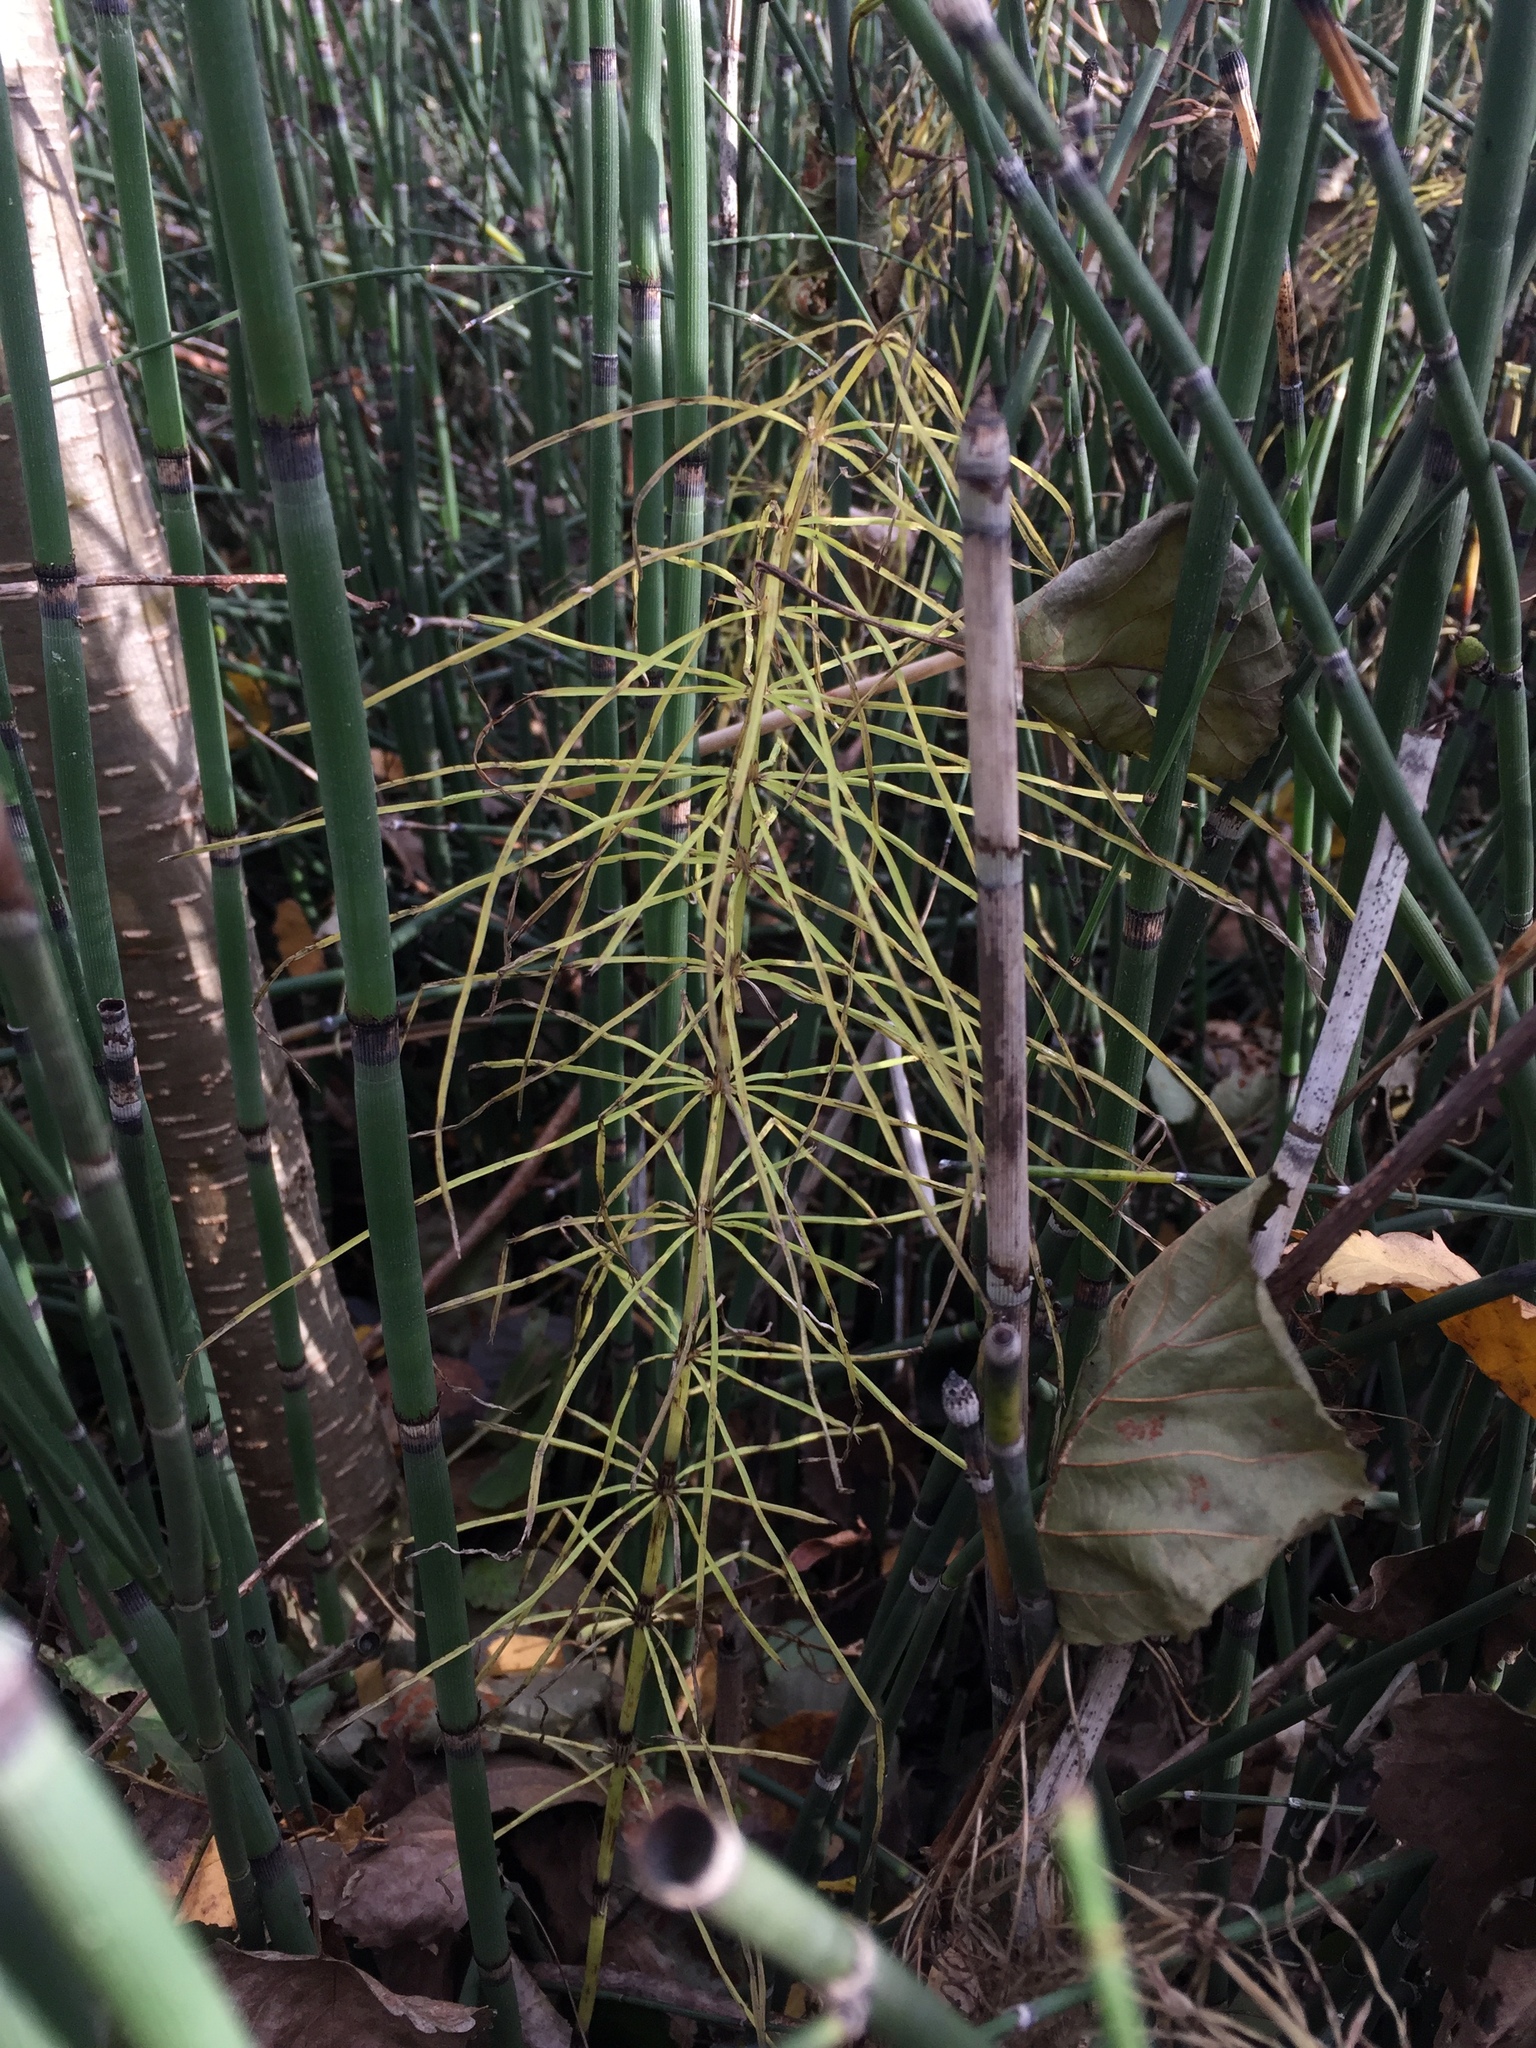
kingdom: Plantae
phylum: Tracheophyta
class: Polypodiopsida
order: Equisetales
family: Equisetaceae
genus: Equisetum
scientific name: Equisetum arvense
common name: Field horsetail
